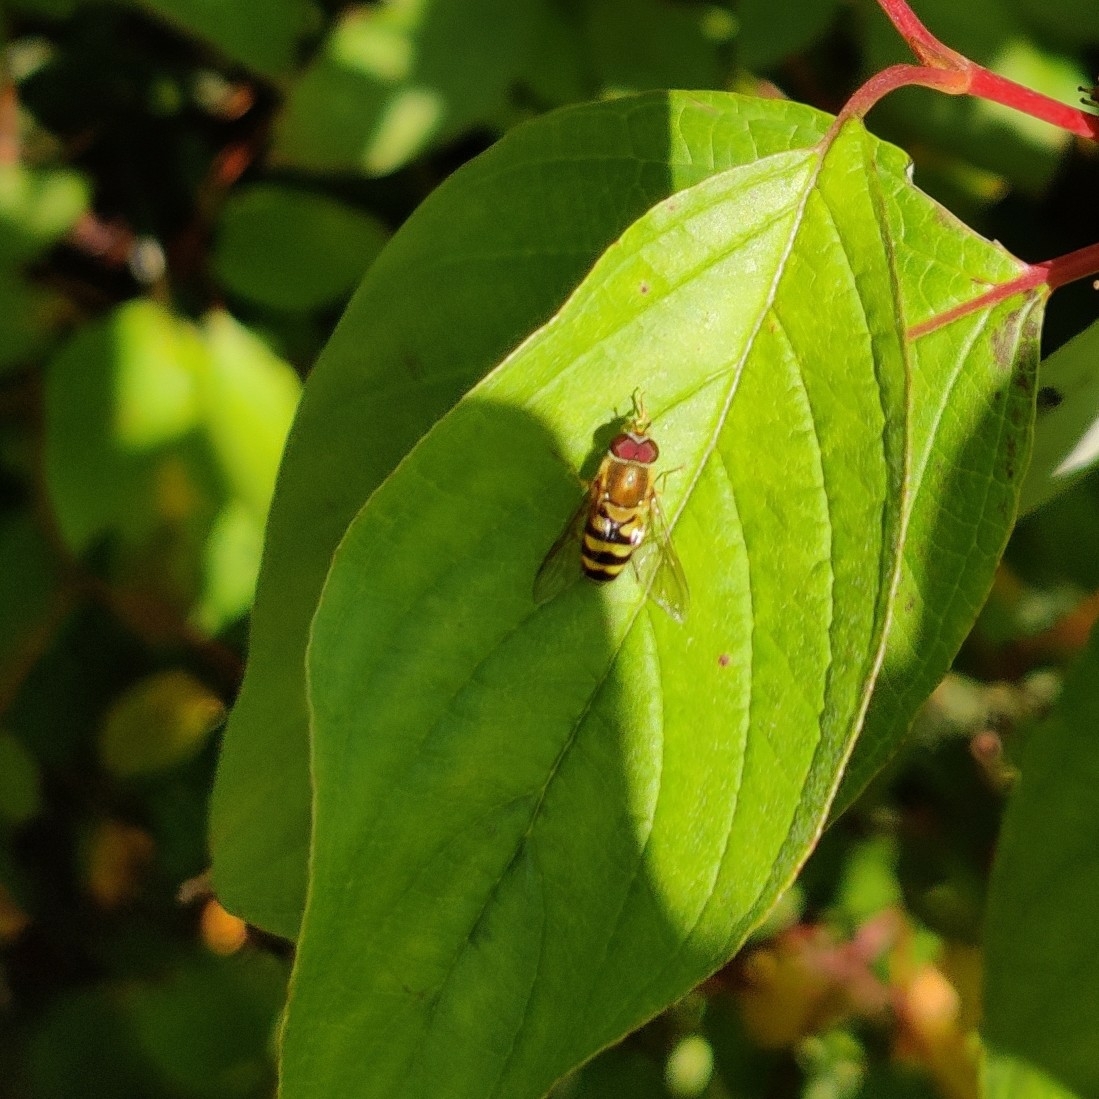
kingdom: Animalia
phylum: Arthropoda
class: Insecta
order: Diptera
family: Syrphidae
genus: Syrphus
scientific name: Syrphus
